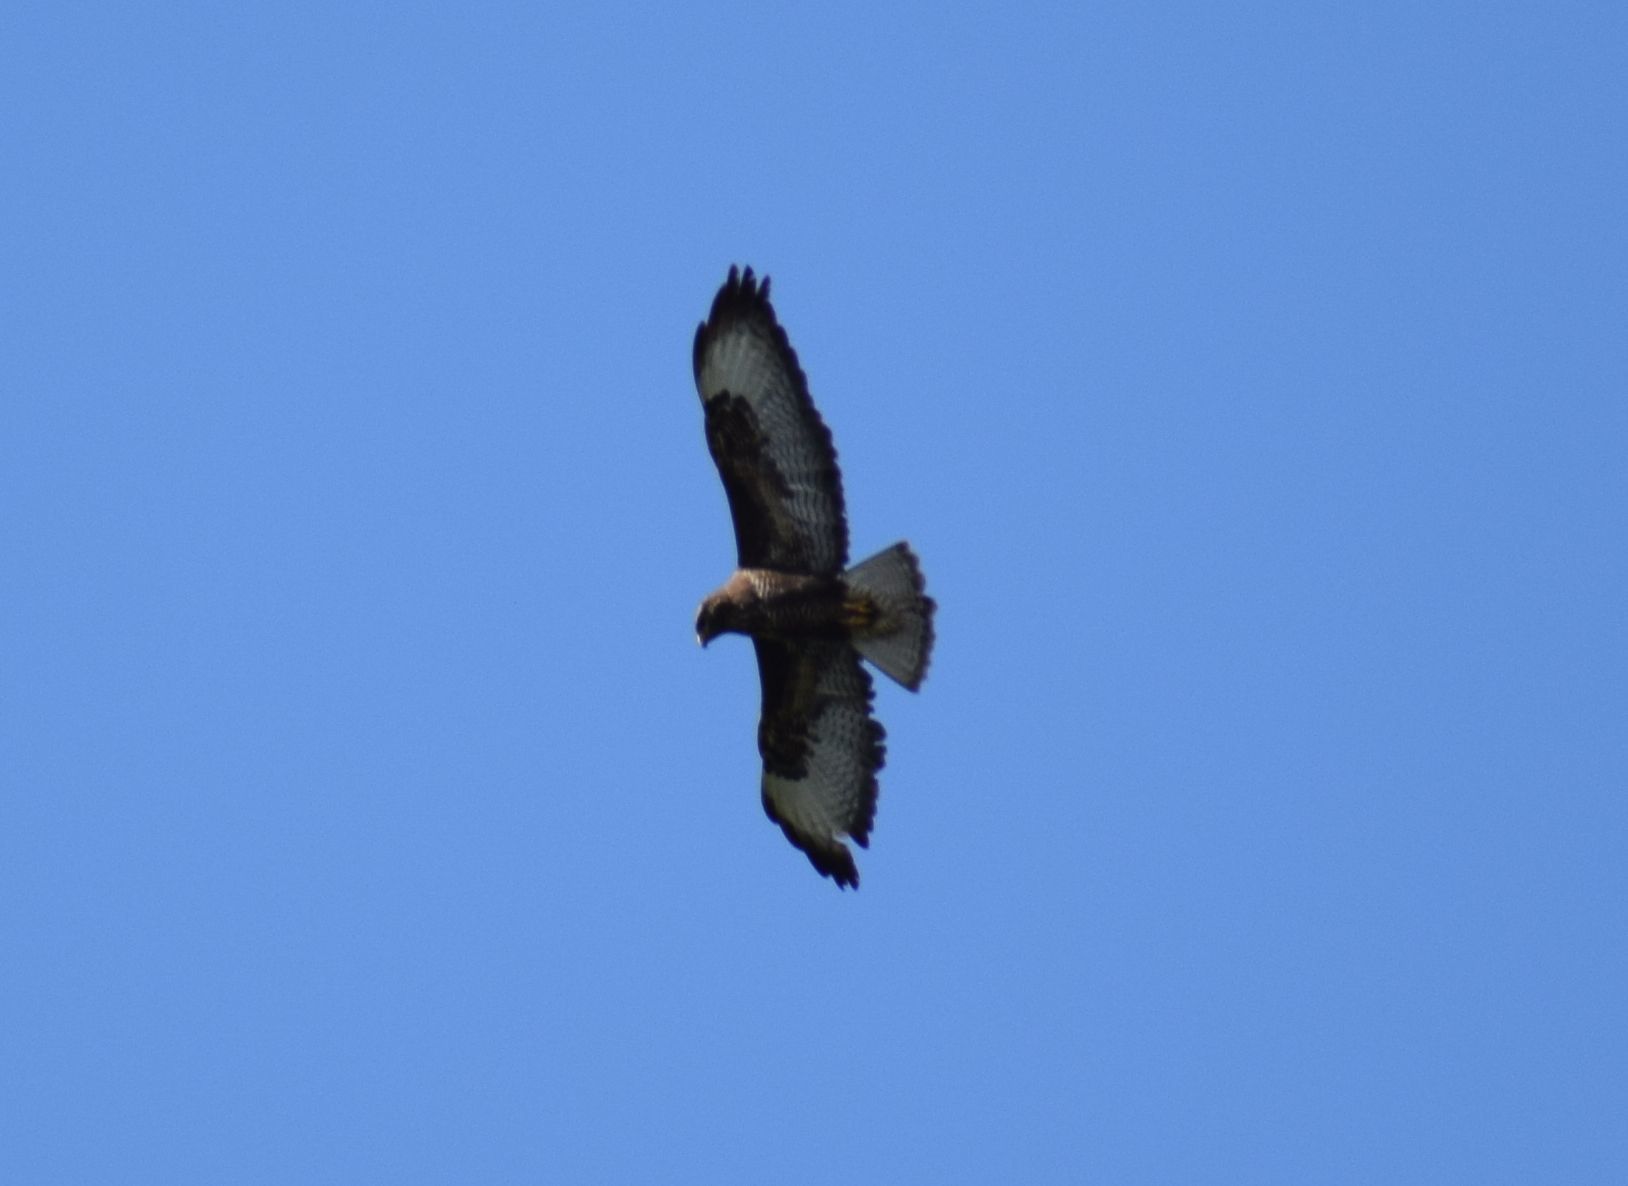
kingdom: Animalia
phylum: Chordata
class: Aves
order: Accipitriformes
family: Accipitridae
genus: Buteo
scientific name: Buteo buteo
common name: Common buzzard
